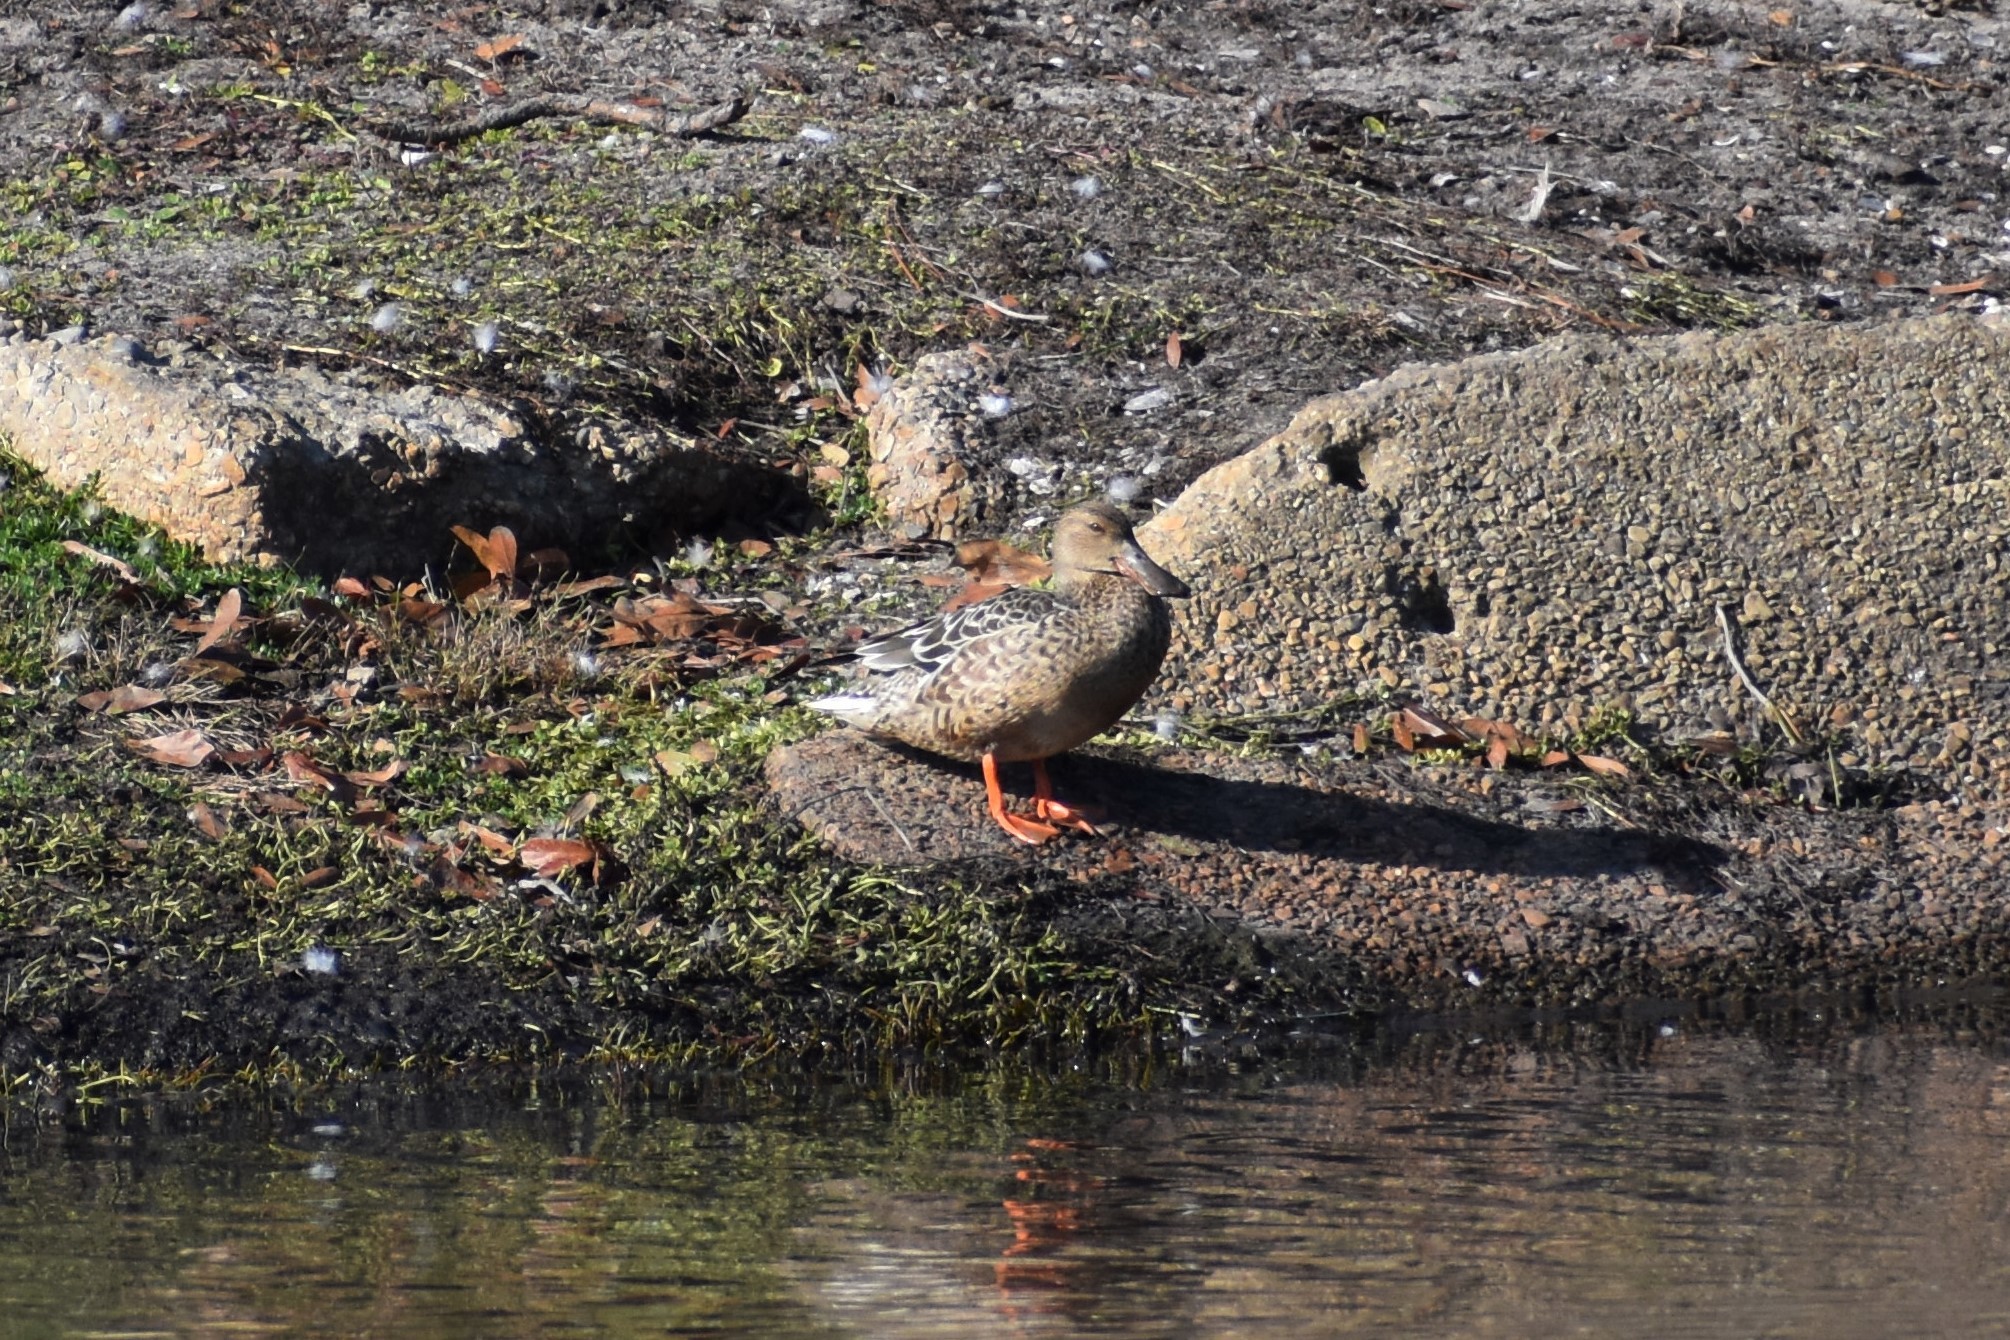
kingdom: Animalia
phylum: Chordata
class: Aves
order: Anseriformes
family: Anatidae
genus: Spatula
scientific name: Spatula clypeata
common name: Northern shoveler
